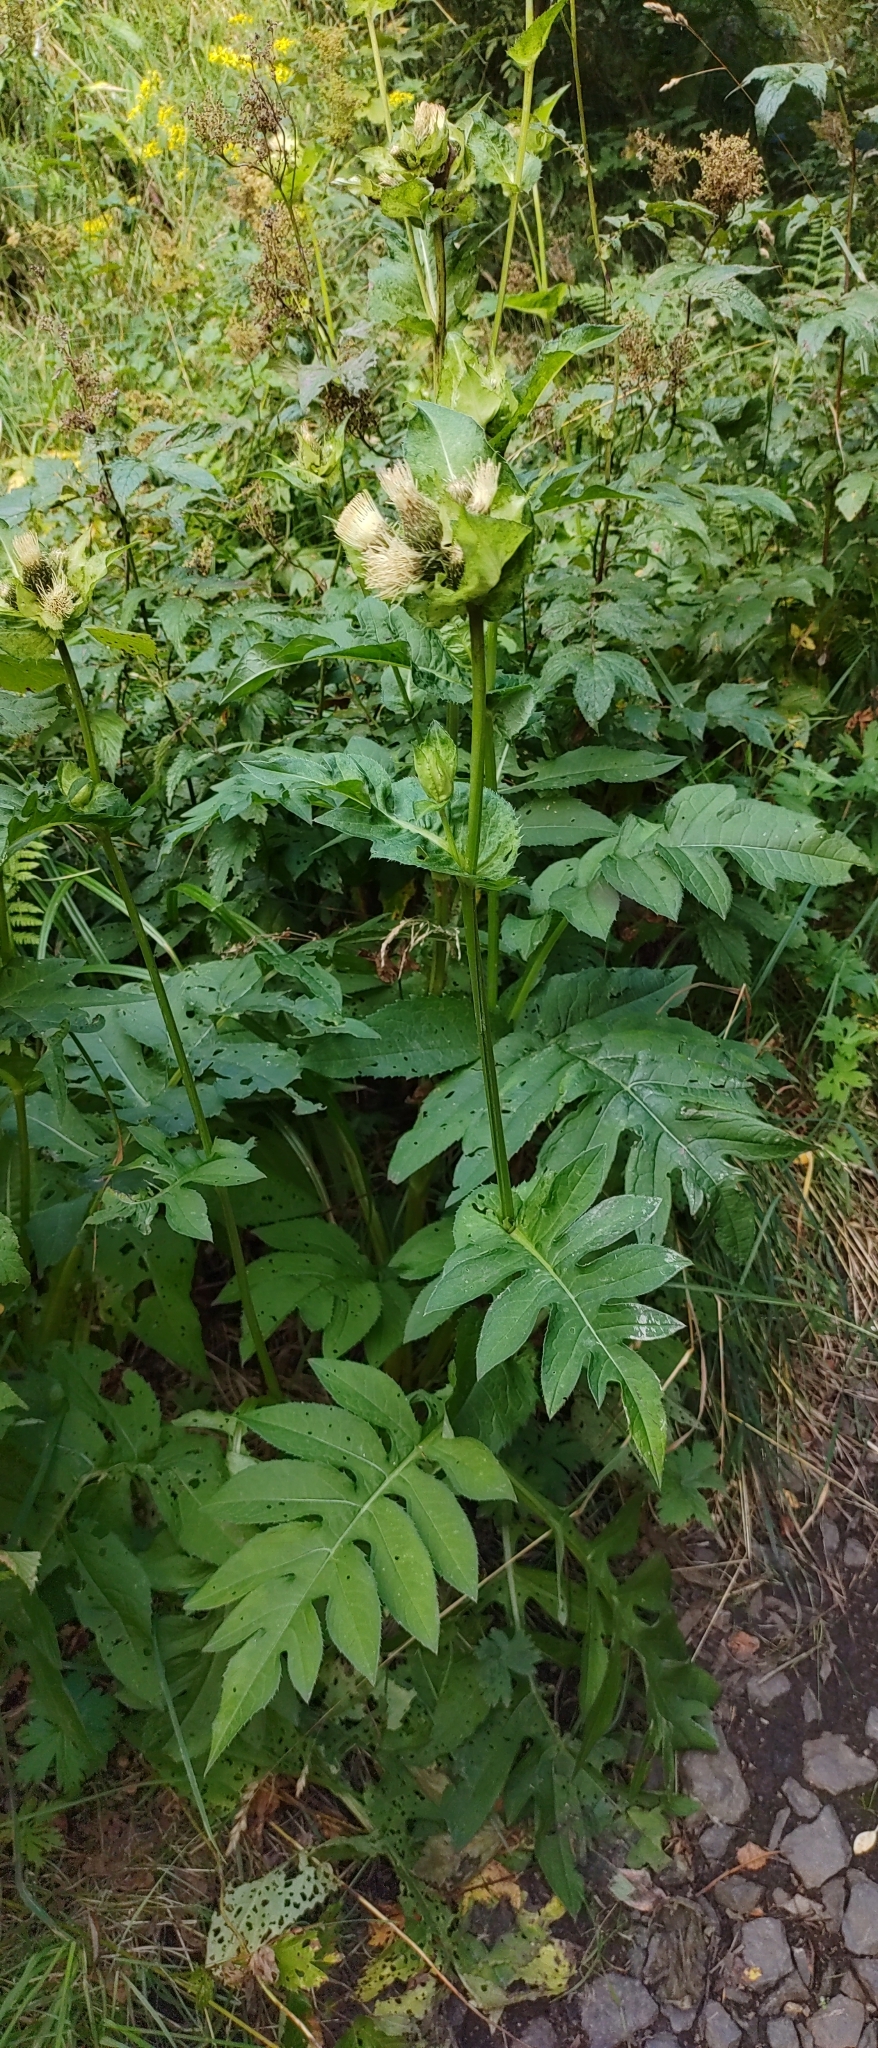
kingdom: Plantae
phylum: Tracheophyta
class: Magnoliopsida
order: Asterales
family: Asteraceae
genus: Cirsium
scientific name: Cirsium oleraceum
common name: Cabbage thistle
